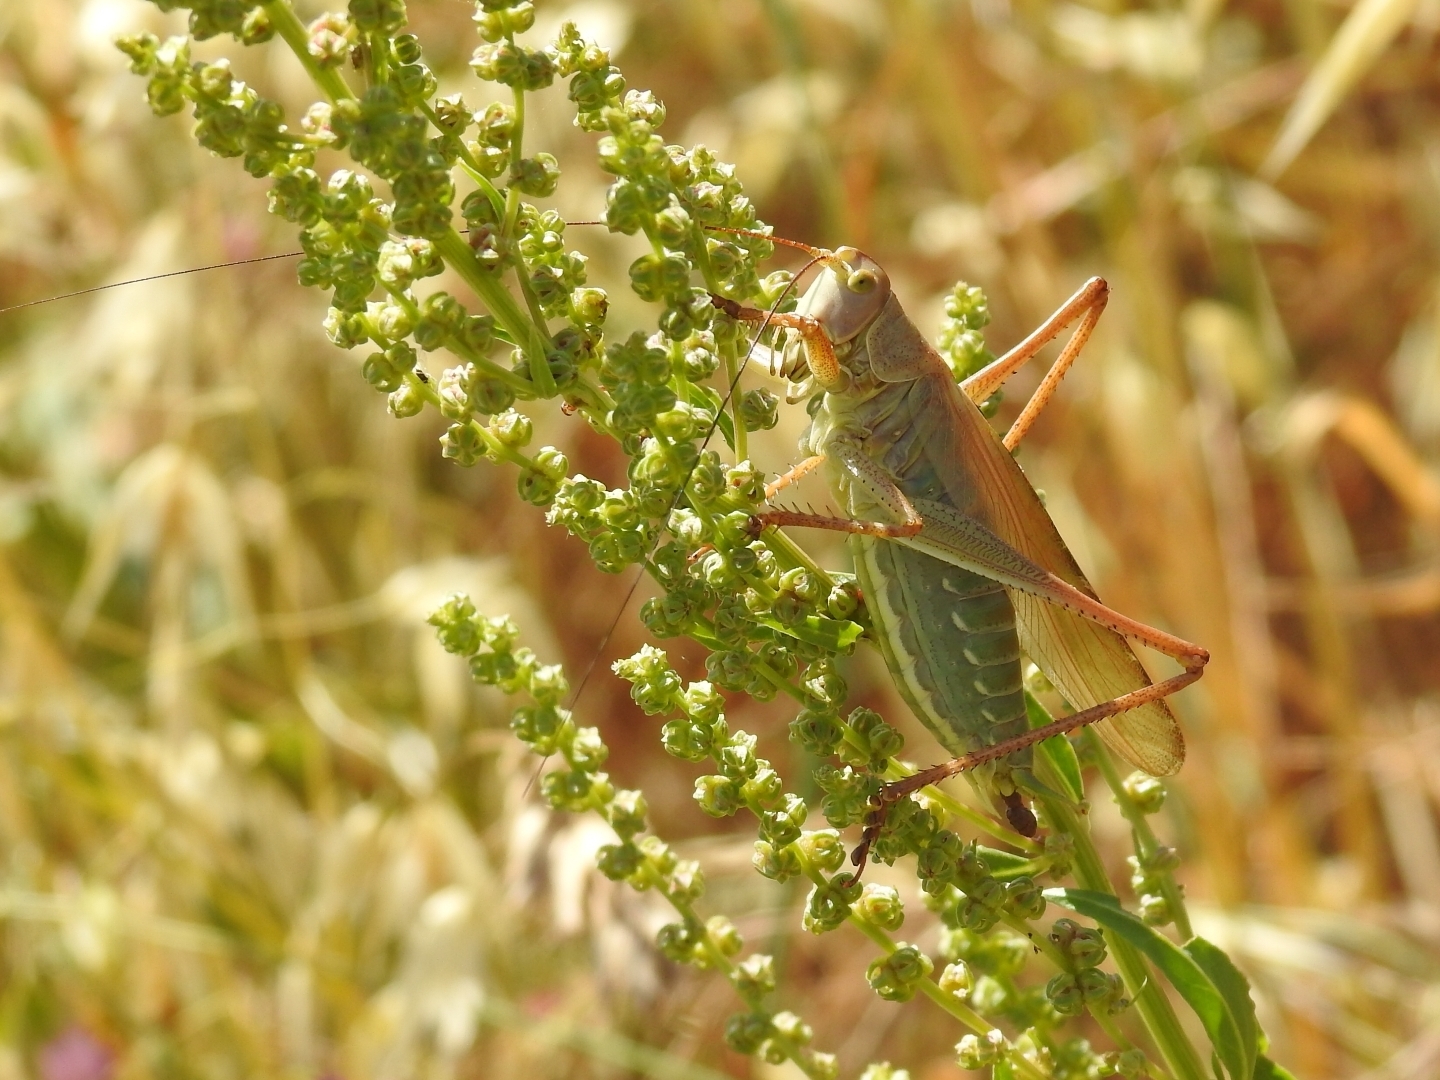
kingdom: Animalia
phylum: Arthropoda
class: Insecta
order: Orthoptera
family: Tettigoniidae
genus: Tettigonia
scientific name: Tettigonia viridissima
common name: Great green bush-cricket
